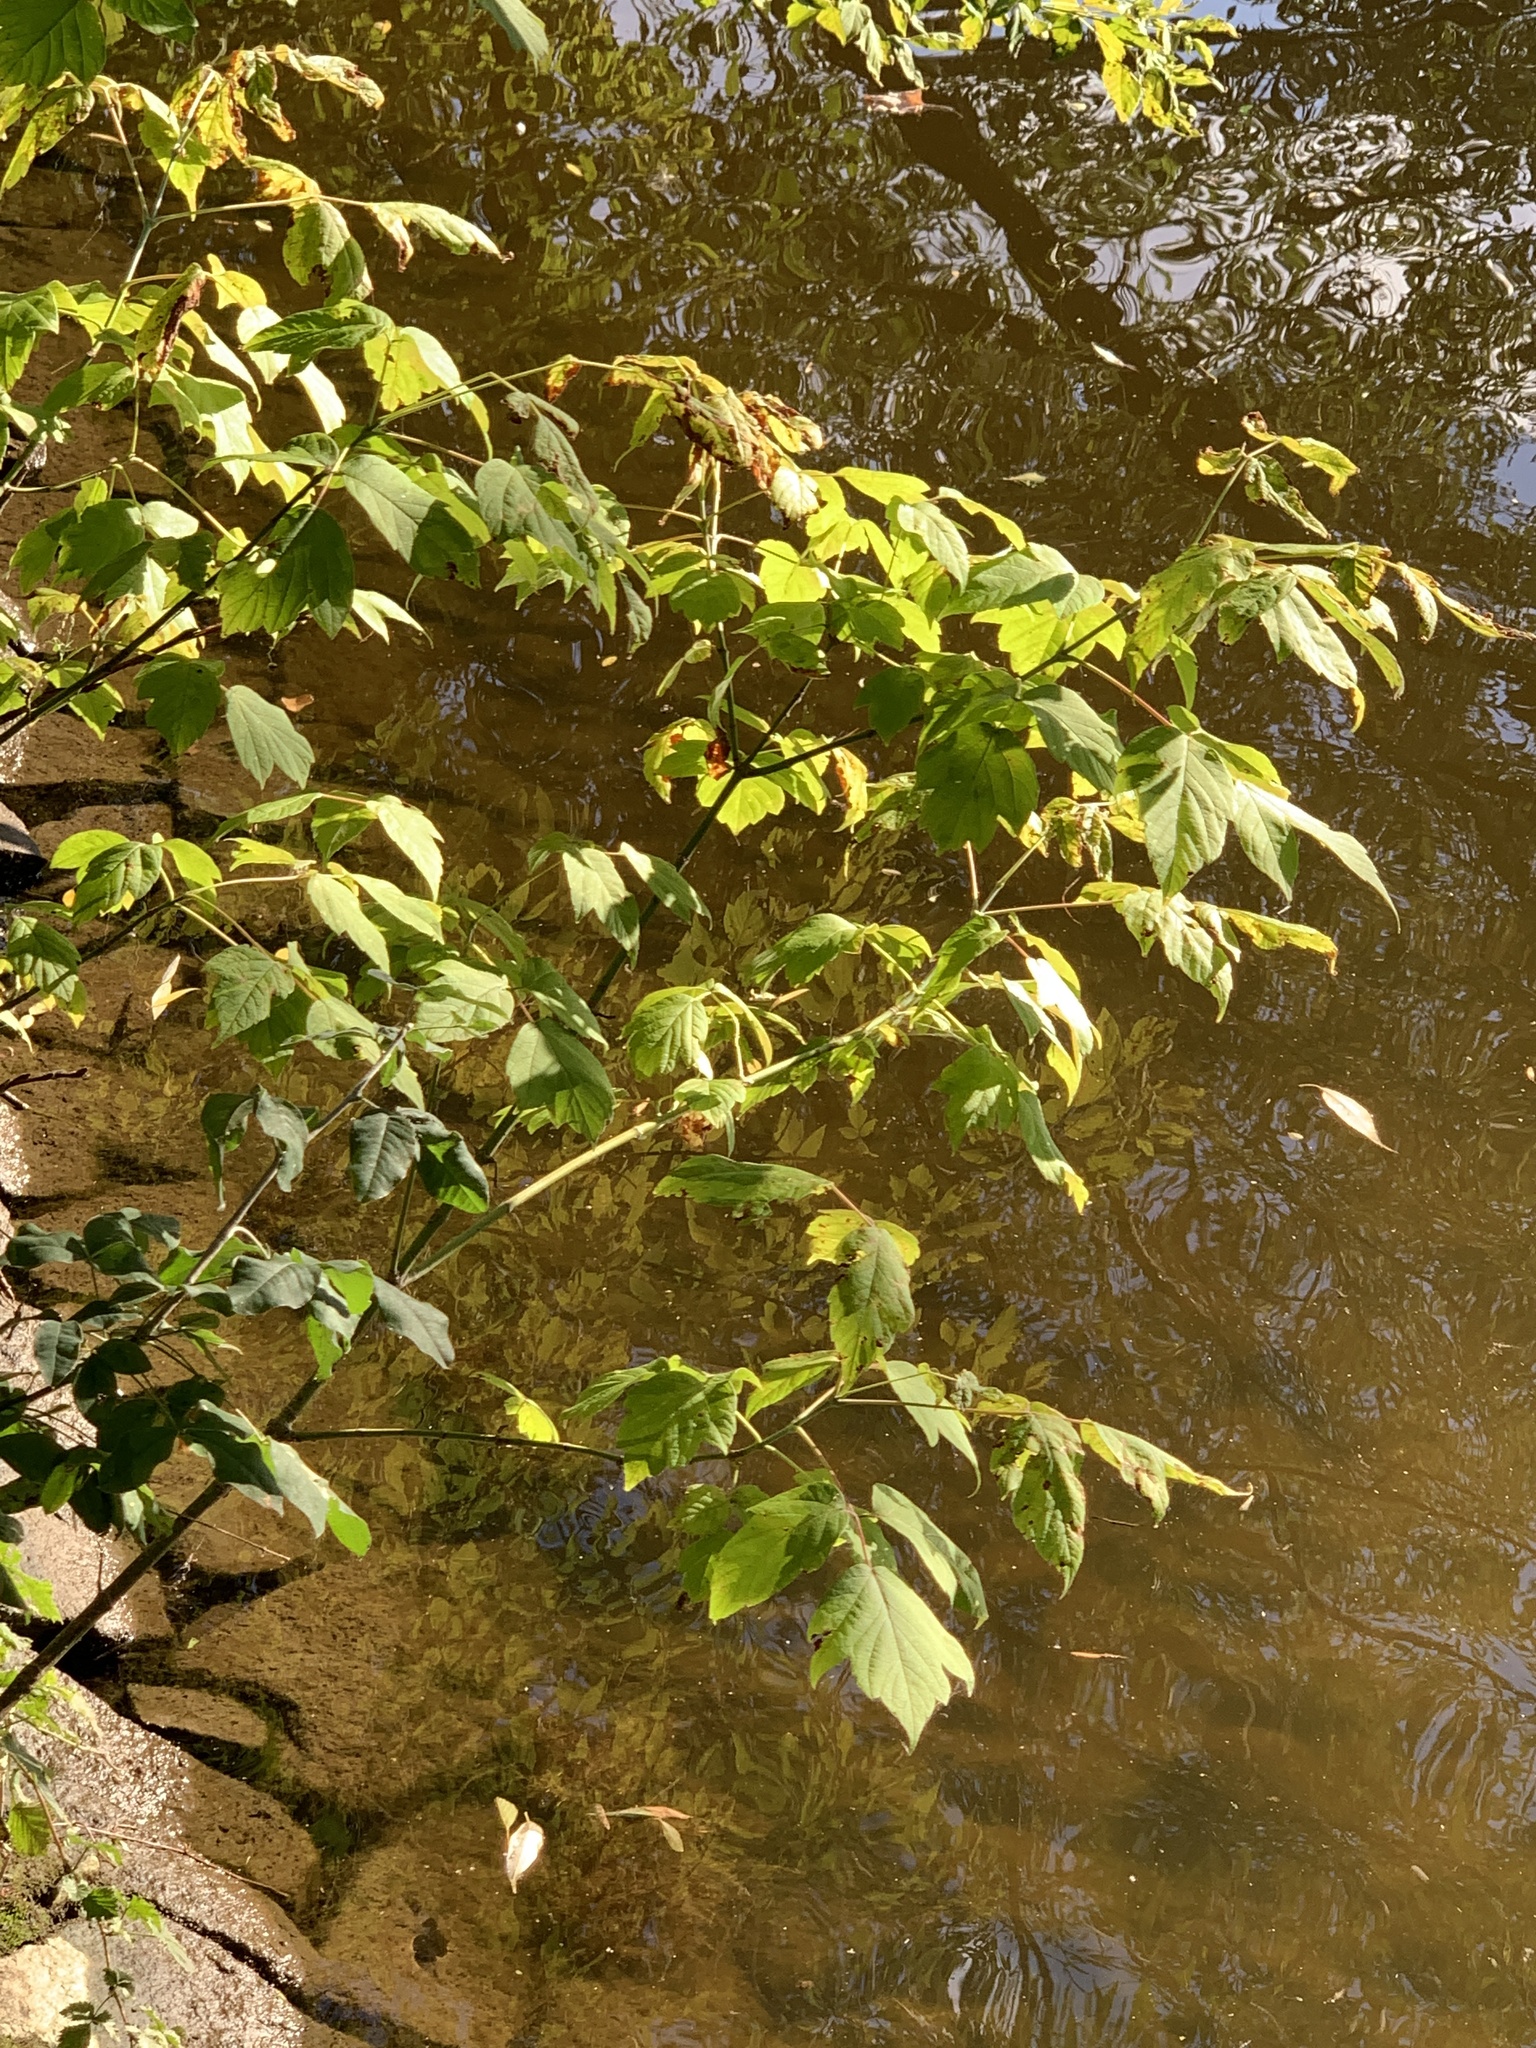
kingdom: Plantae
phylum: Tracheophyta
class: Magnoliopsida
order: Sapindales
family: Sapindaceae
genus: Acer
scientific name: Acer negundo
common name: Ashleaf maple
